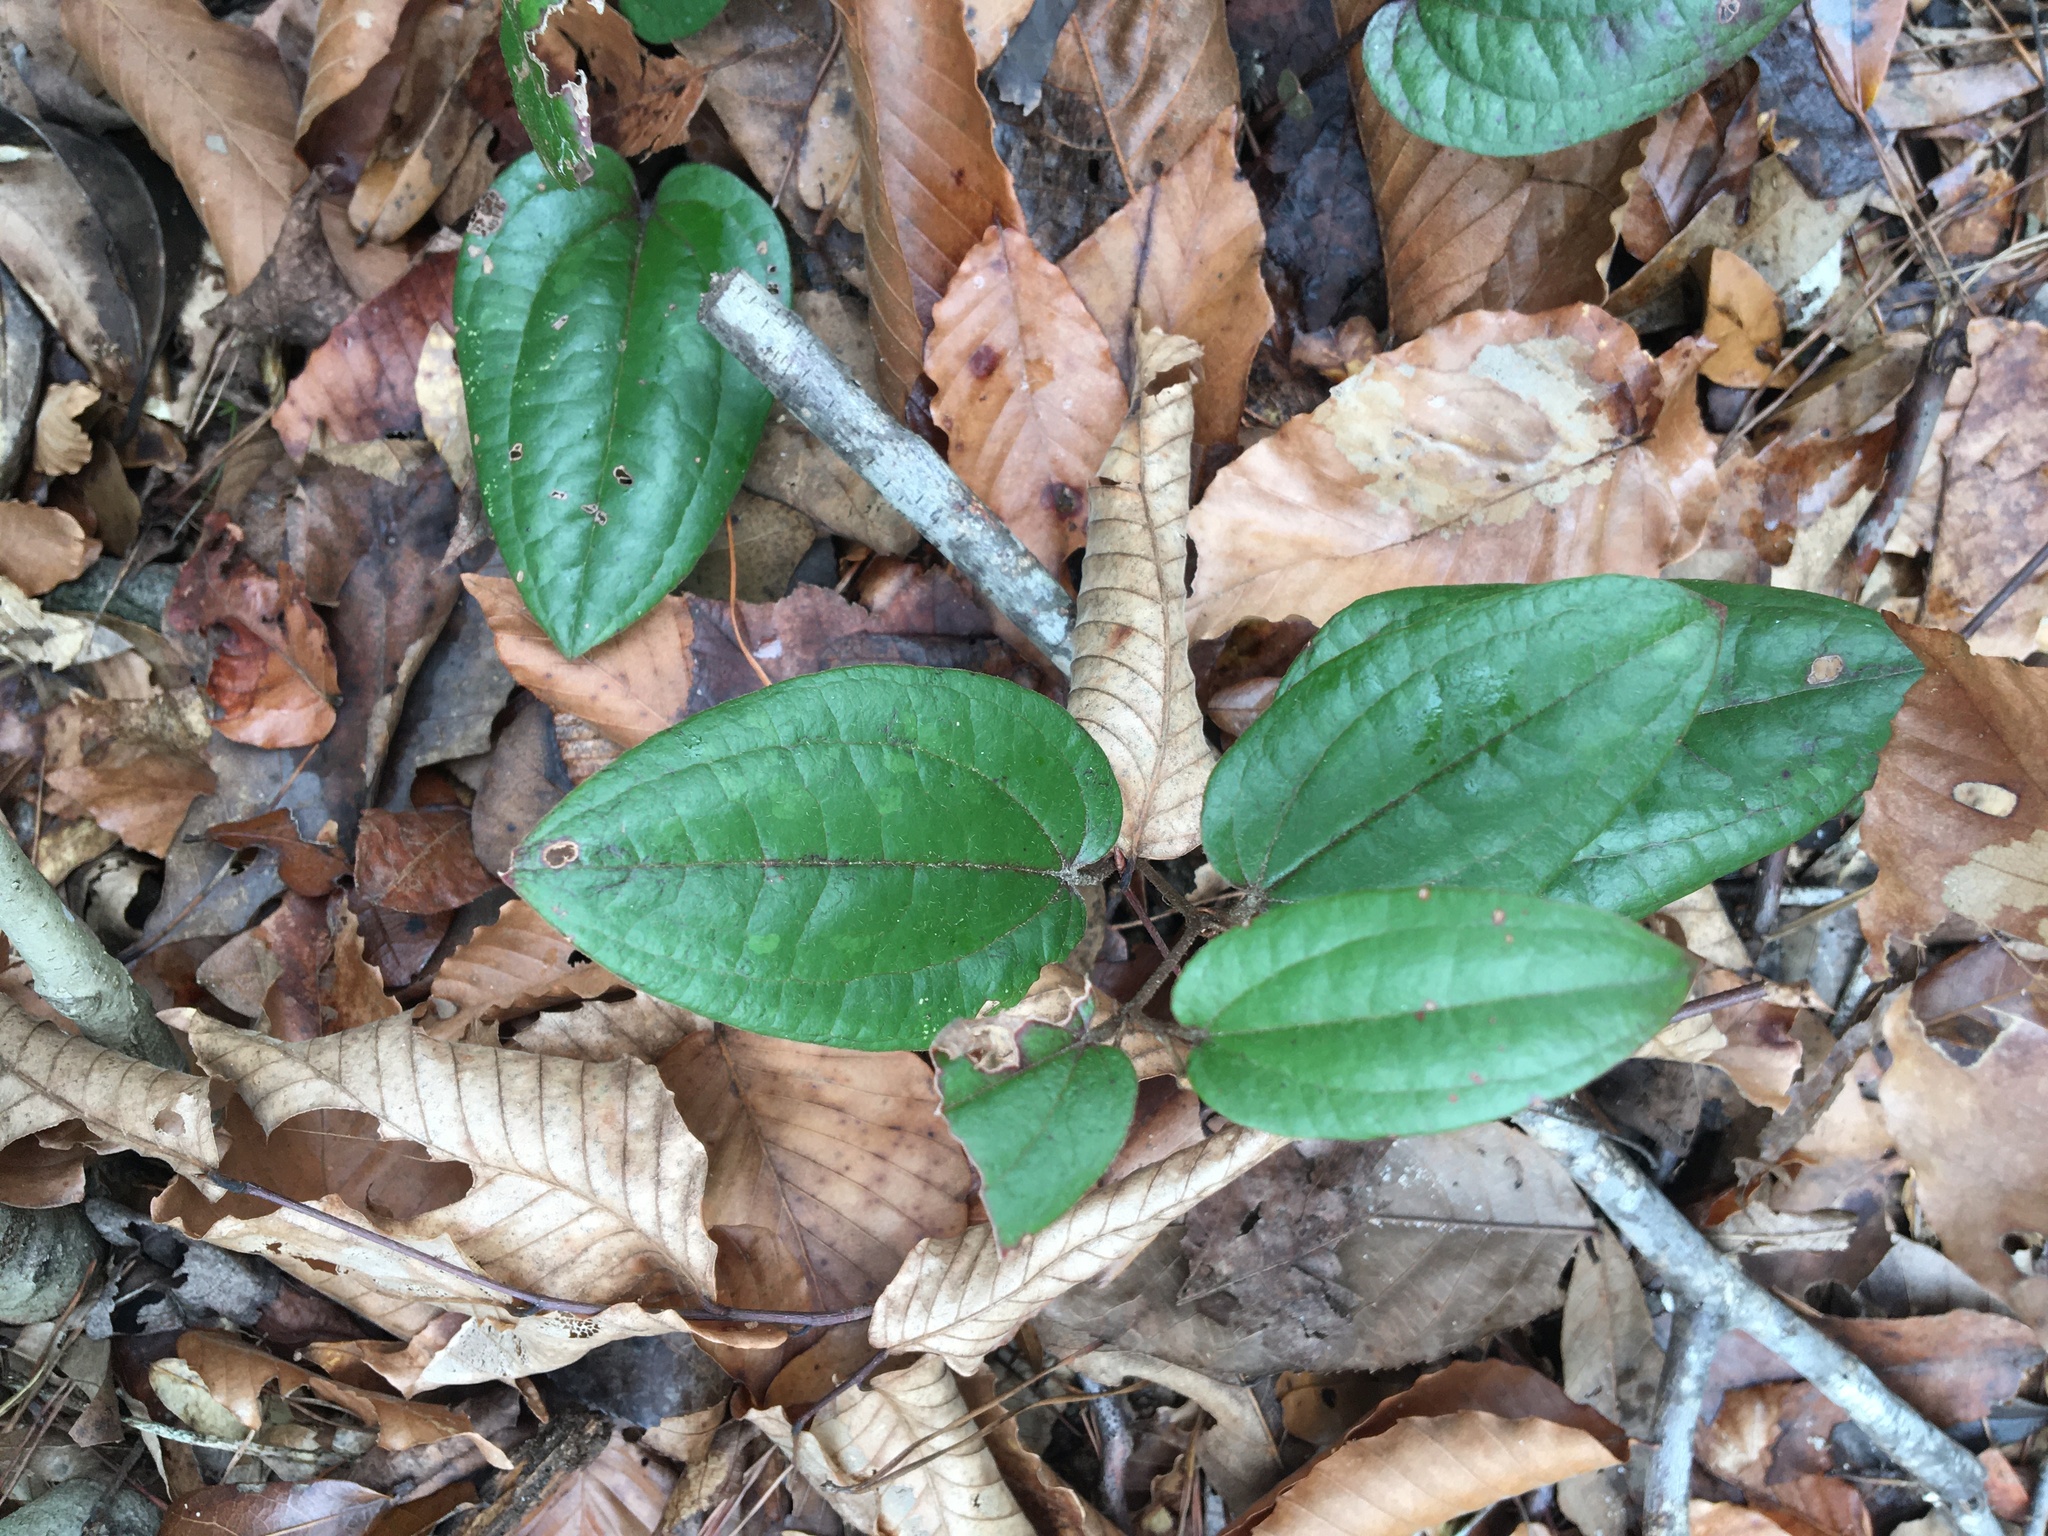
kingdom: Plantae
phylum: Tracheophyta
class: Liliopsida
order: Liliales
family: Smilacaceae
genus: Smilax
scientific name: Smilax pumila
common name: Sarsaparilla-vine
